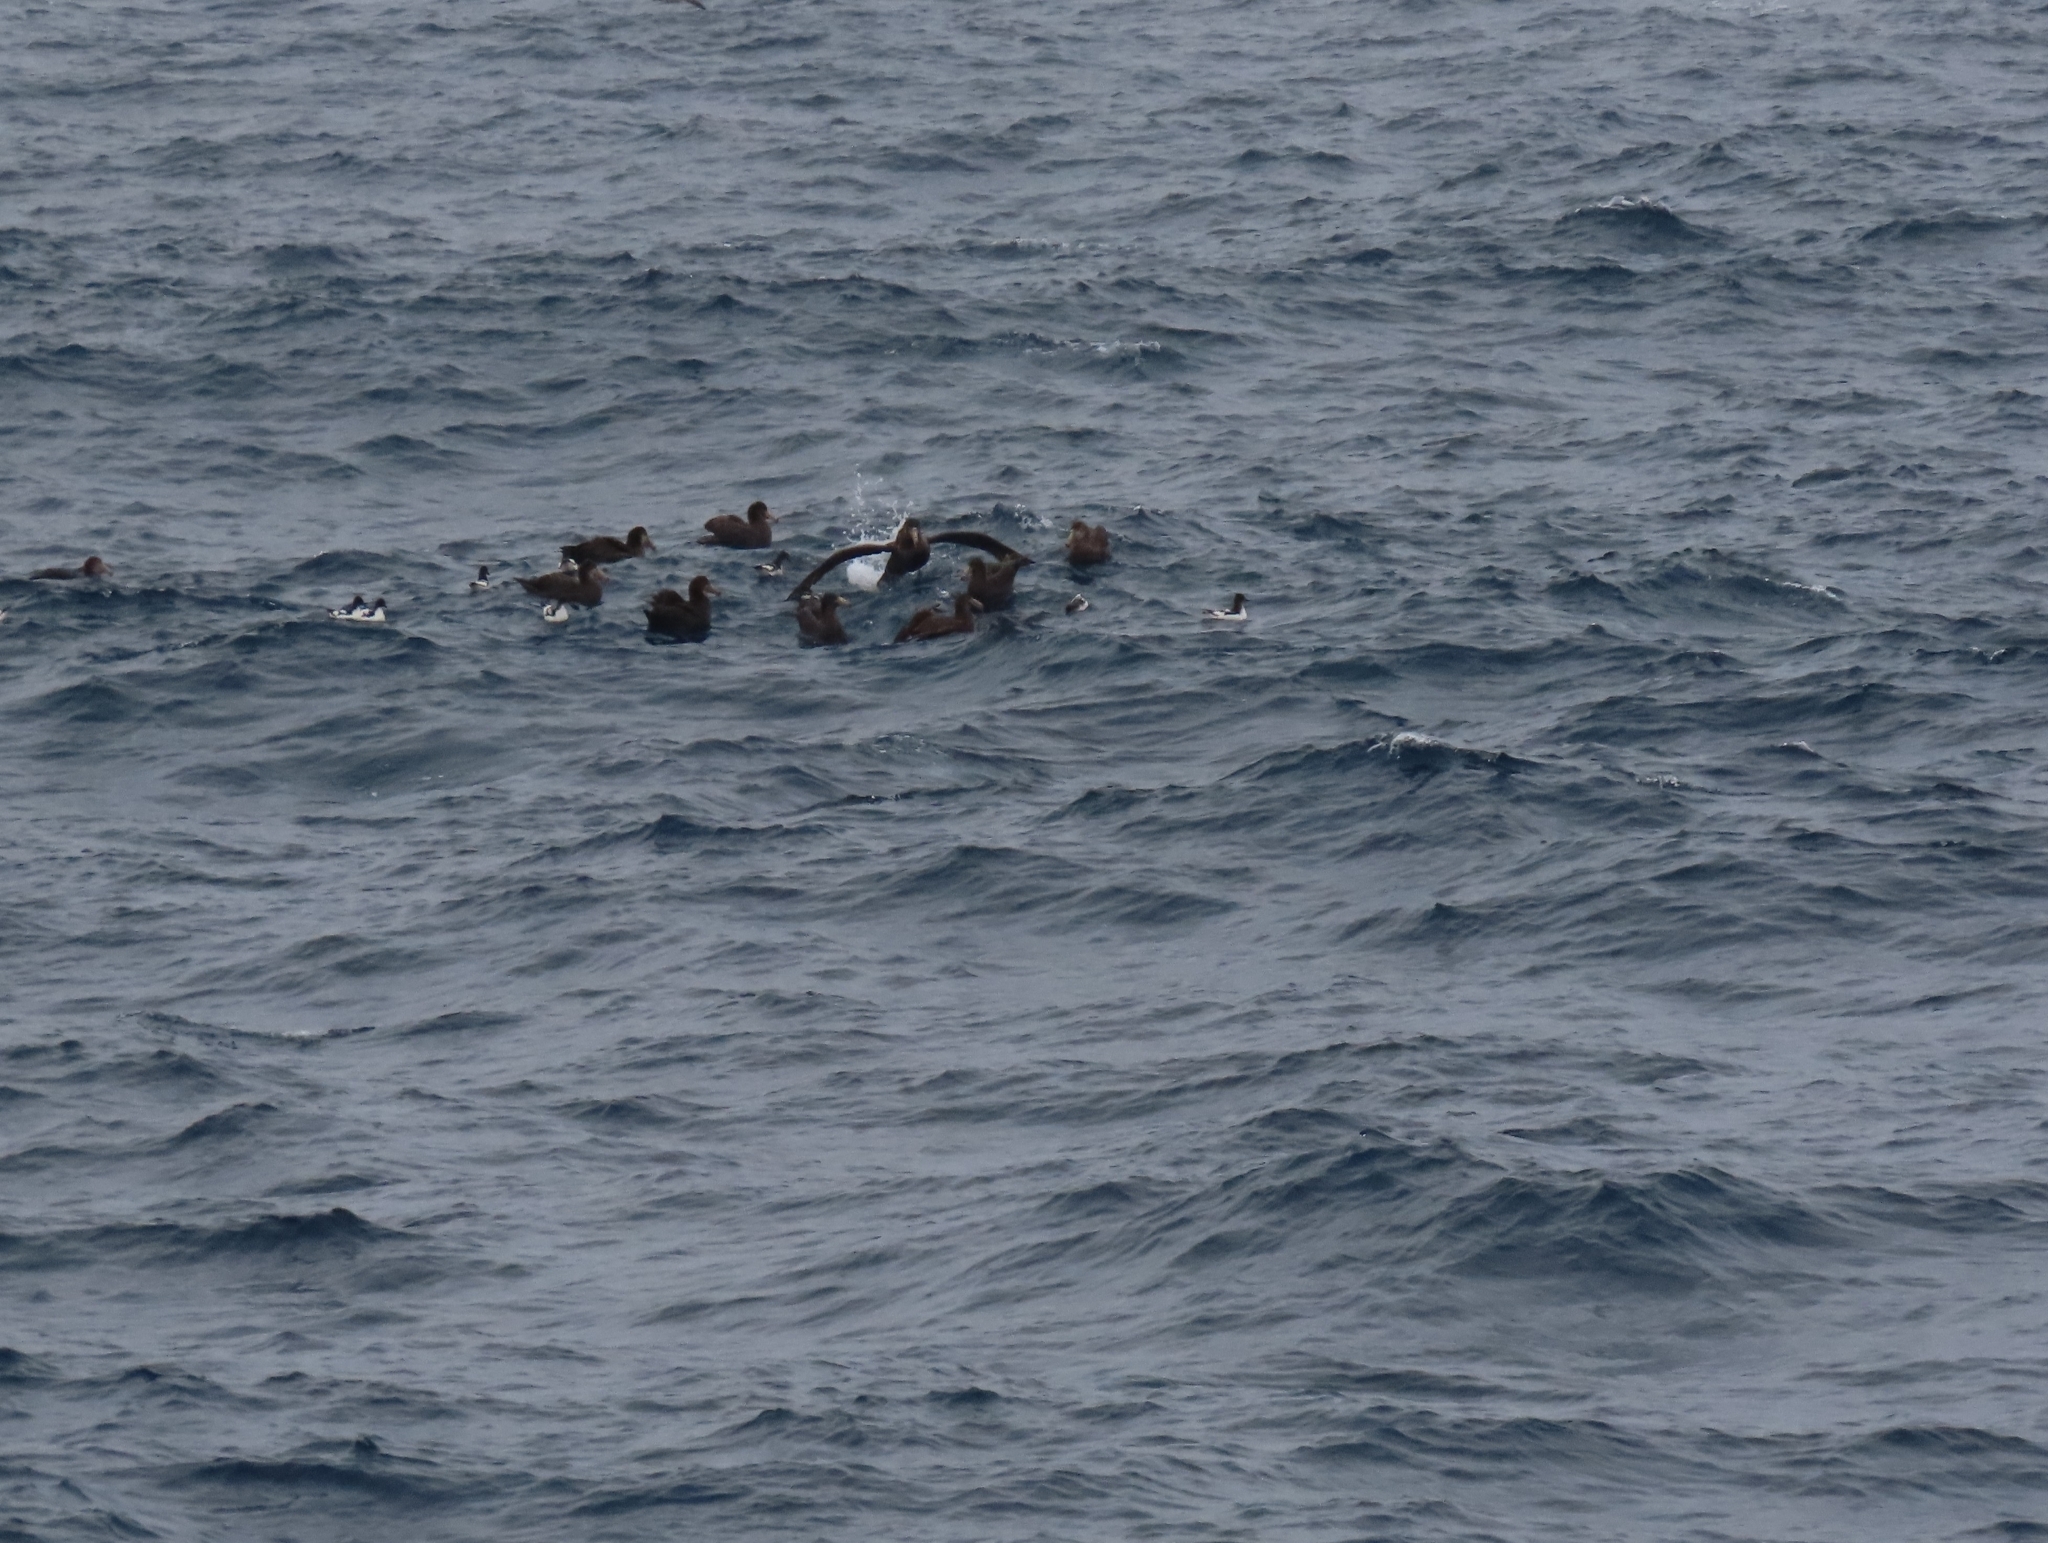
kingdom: Animalia
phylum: Chordata
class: Aves
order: Procellariiformes
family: Procellariidae
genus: Macronectes
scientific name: Macronectes giganteus
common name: Southern giant petrel
